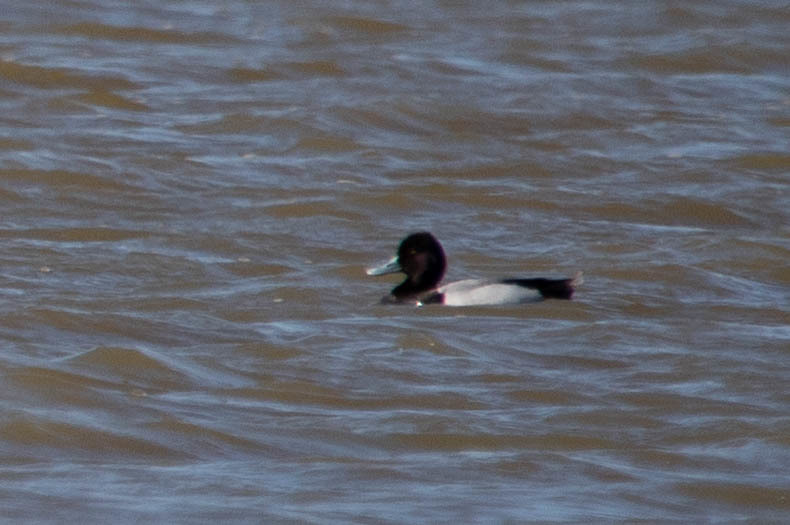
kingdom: Animalia
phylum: Chordata
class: Aves
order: Anseriformes
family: Anatidae
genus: Aythya
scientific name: Aythya affinis
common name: Lesser scaup
